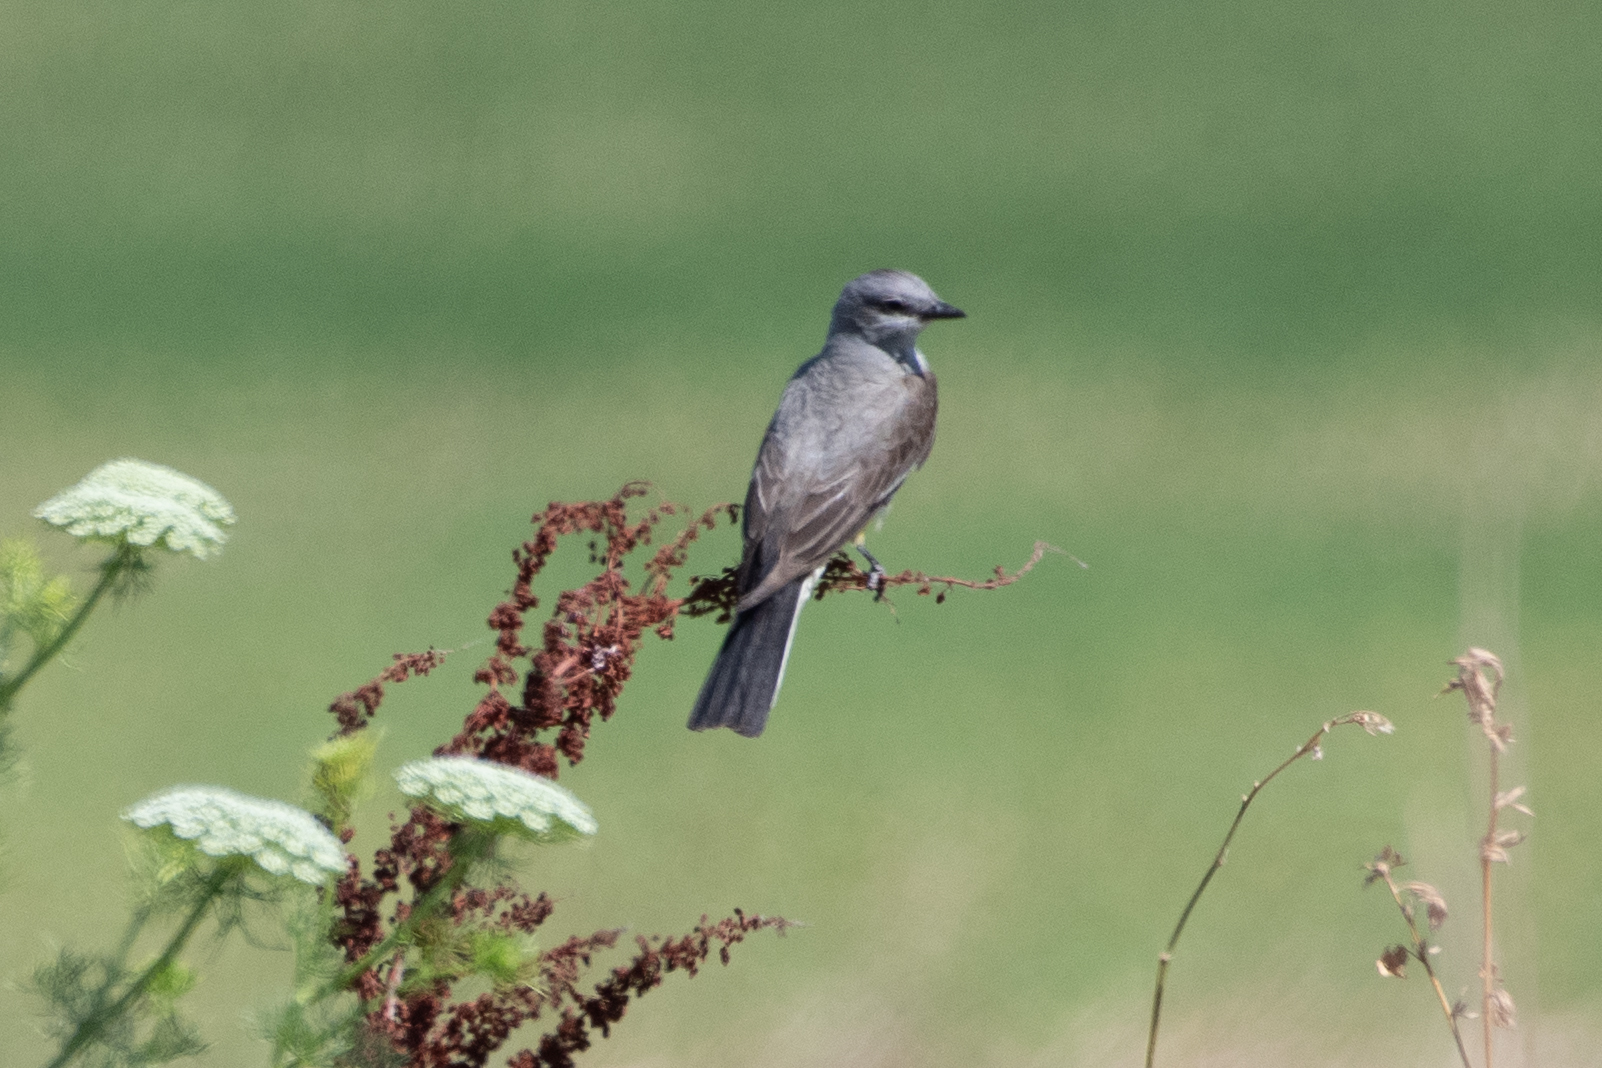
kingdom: Animalia
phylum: Chordata
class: Aves
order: Passeriformes
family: Tyrannidae
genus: Tyrannus
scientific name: Tyrannus verticalis
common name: Western kingbird
